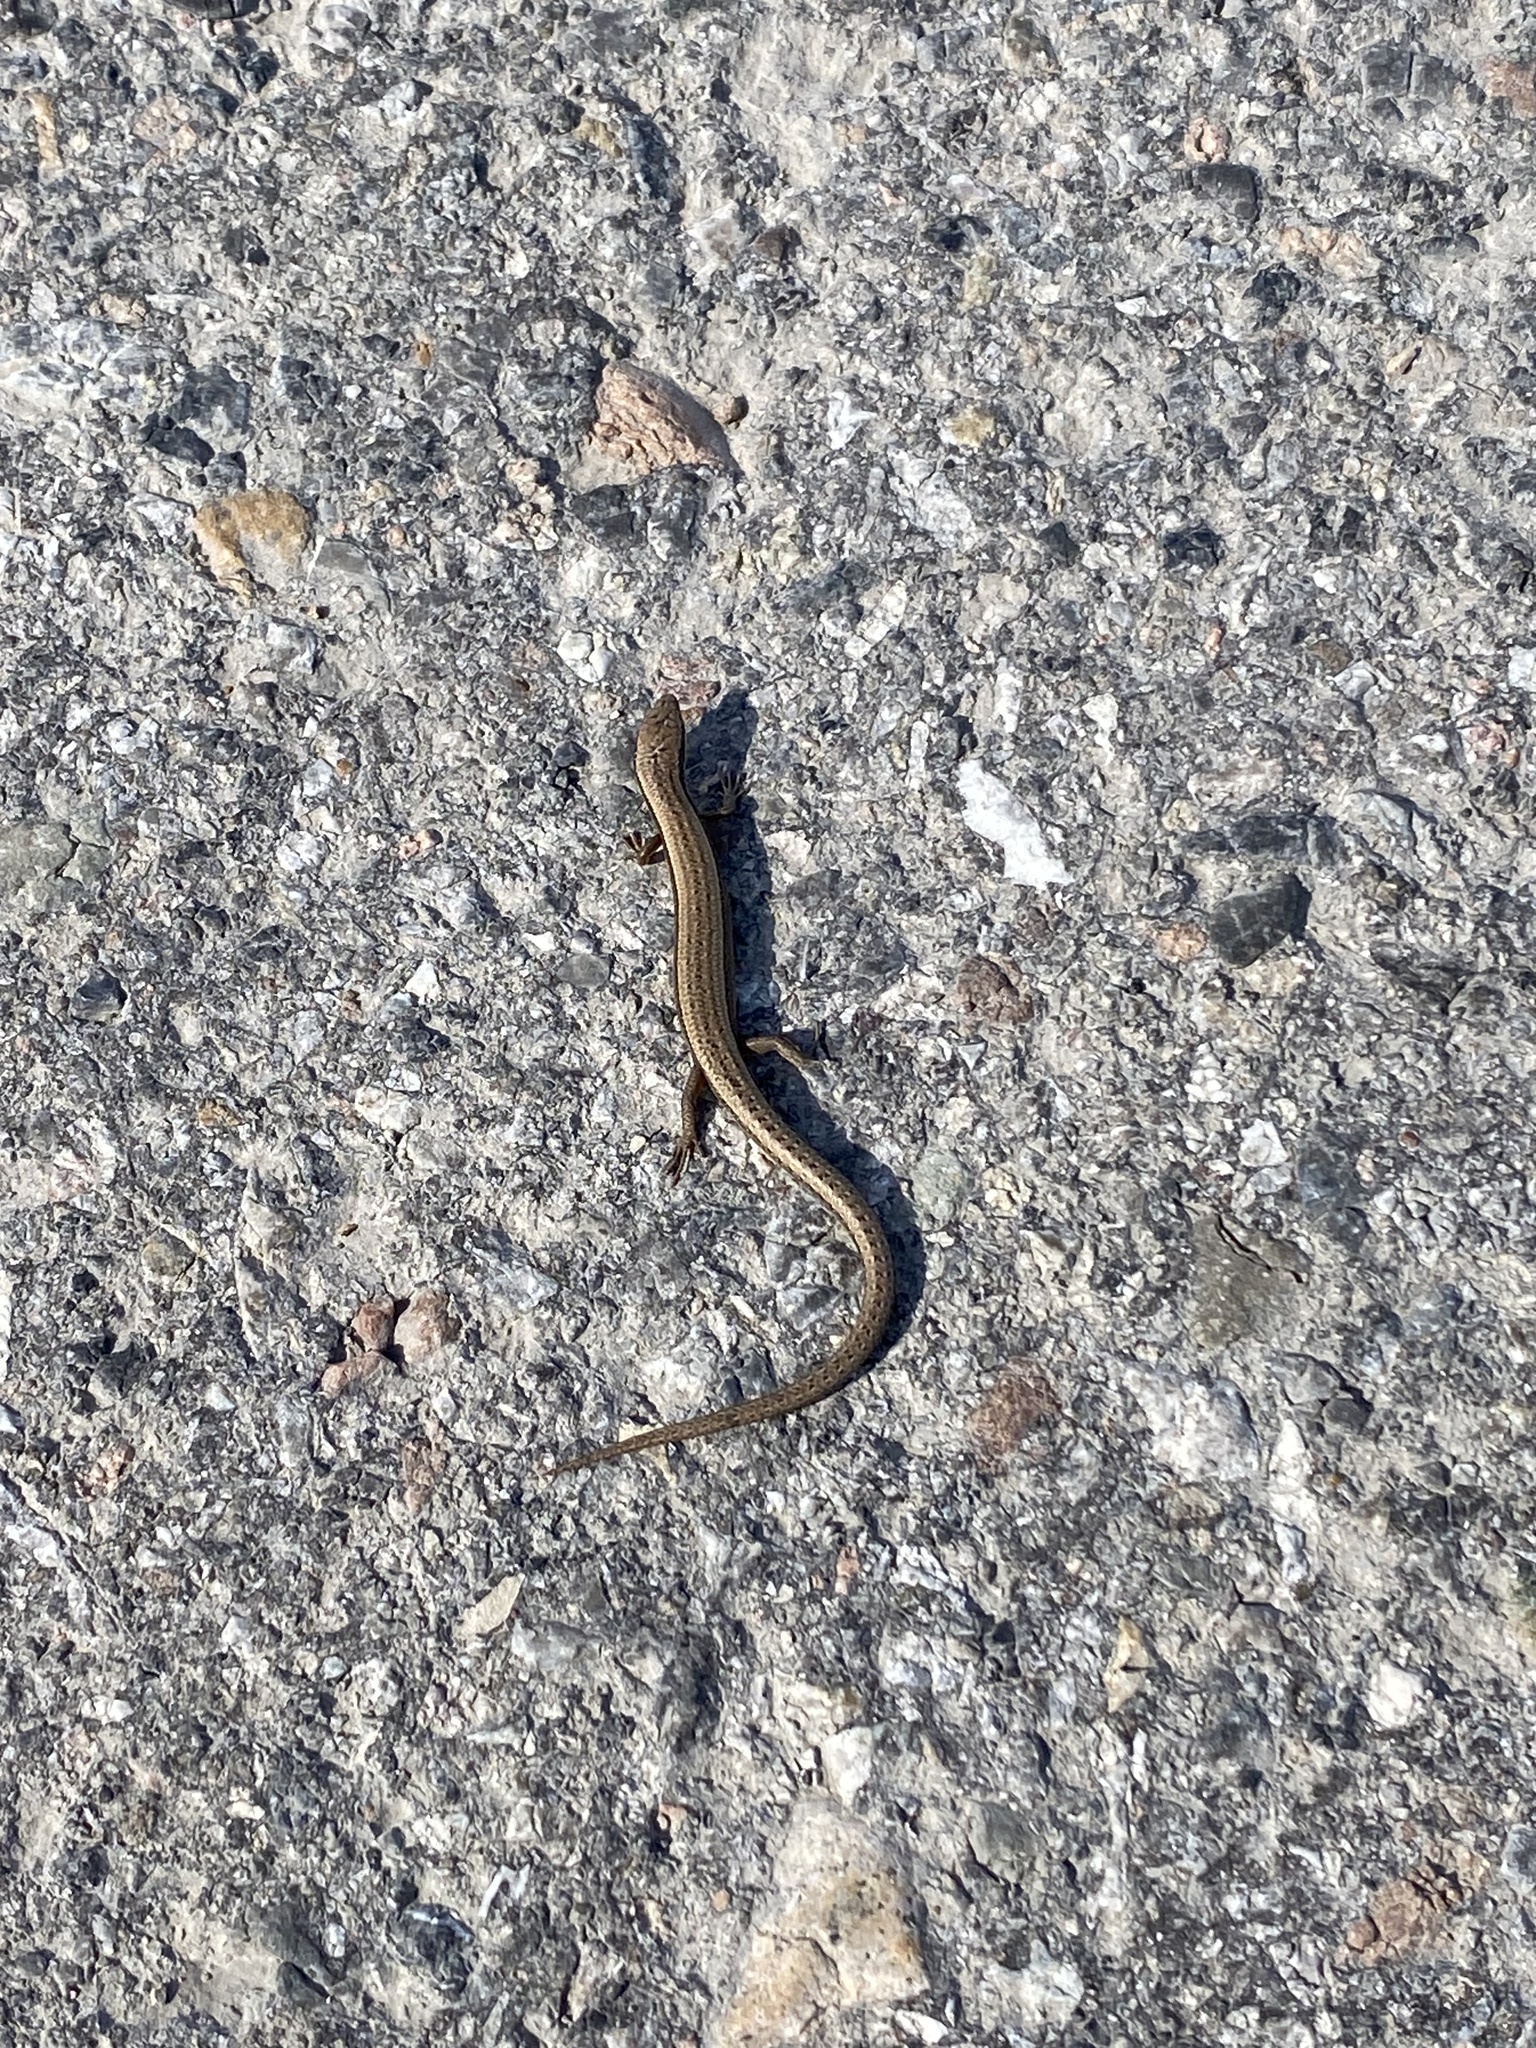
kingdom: Animalia
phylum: Chordata
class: Squamata
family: Scincidae
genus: Ablepharus
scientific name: Ablepharus deserti
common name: Desert lidless skink
